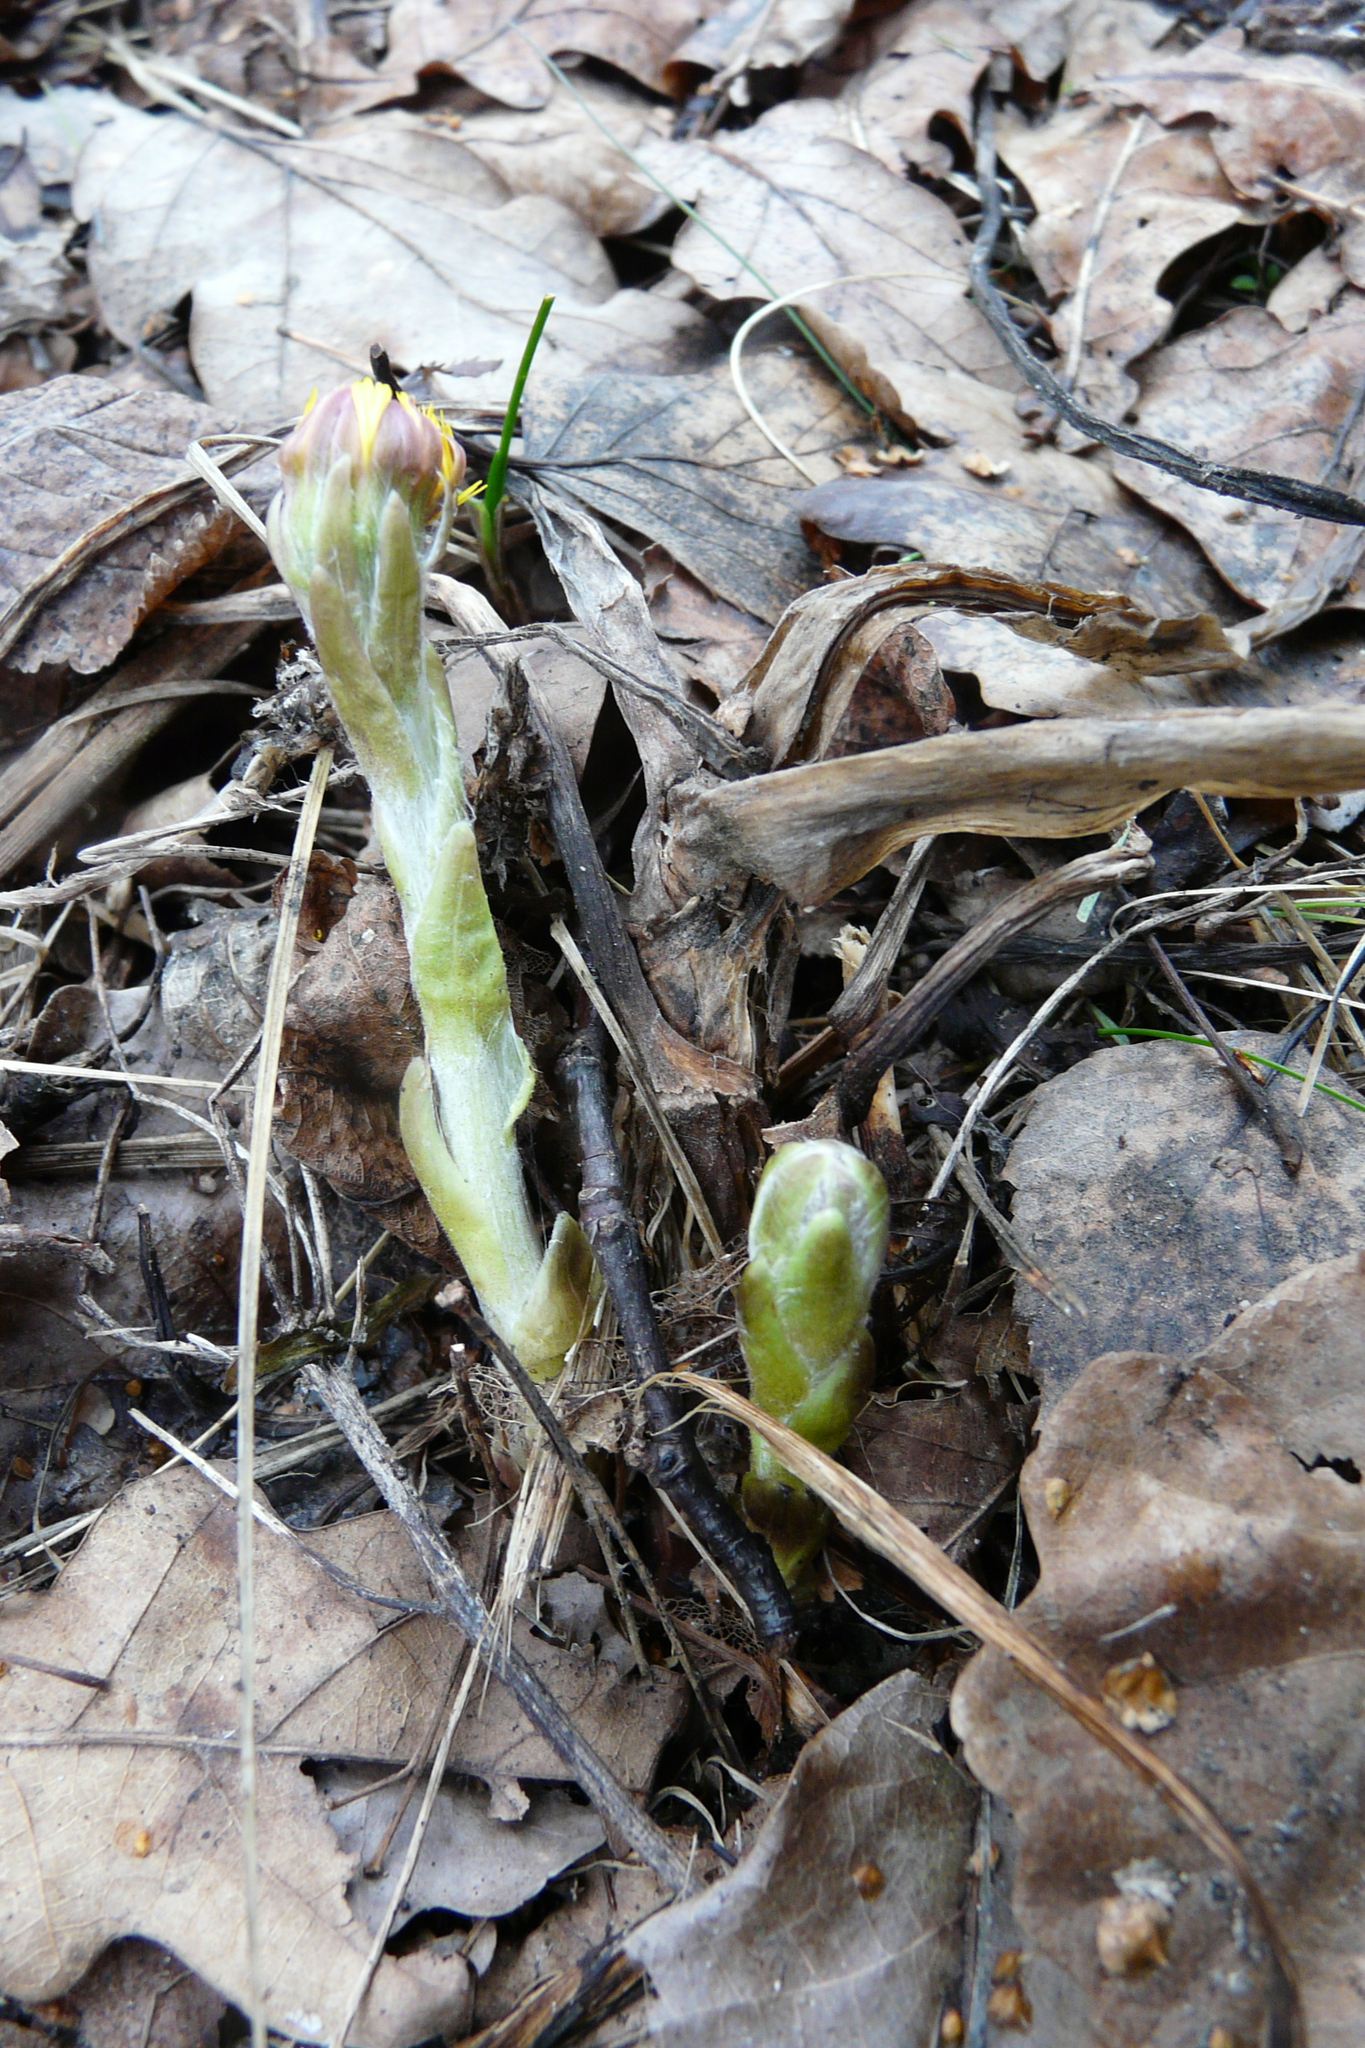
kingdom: Plantae
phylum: Tracheophyta
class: Magnoliopsida
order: Asterales
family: Asteraceae
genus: Tussilago
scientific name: Tussilago farfara
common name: Coltsfoot
